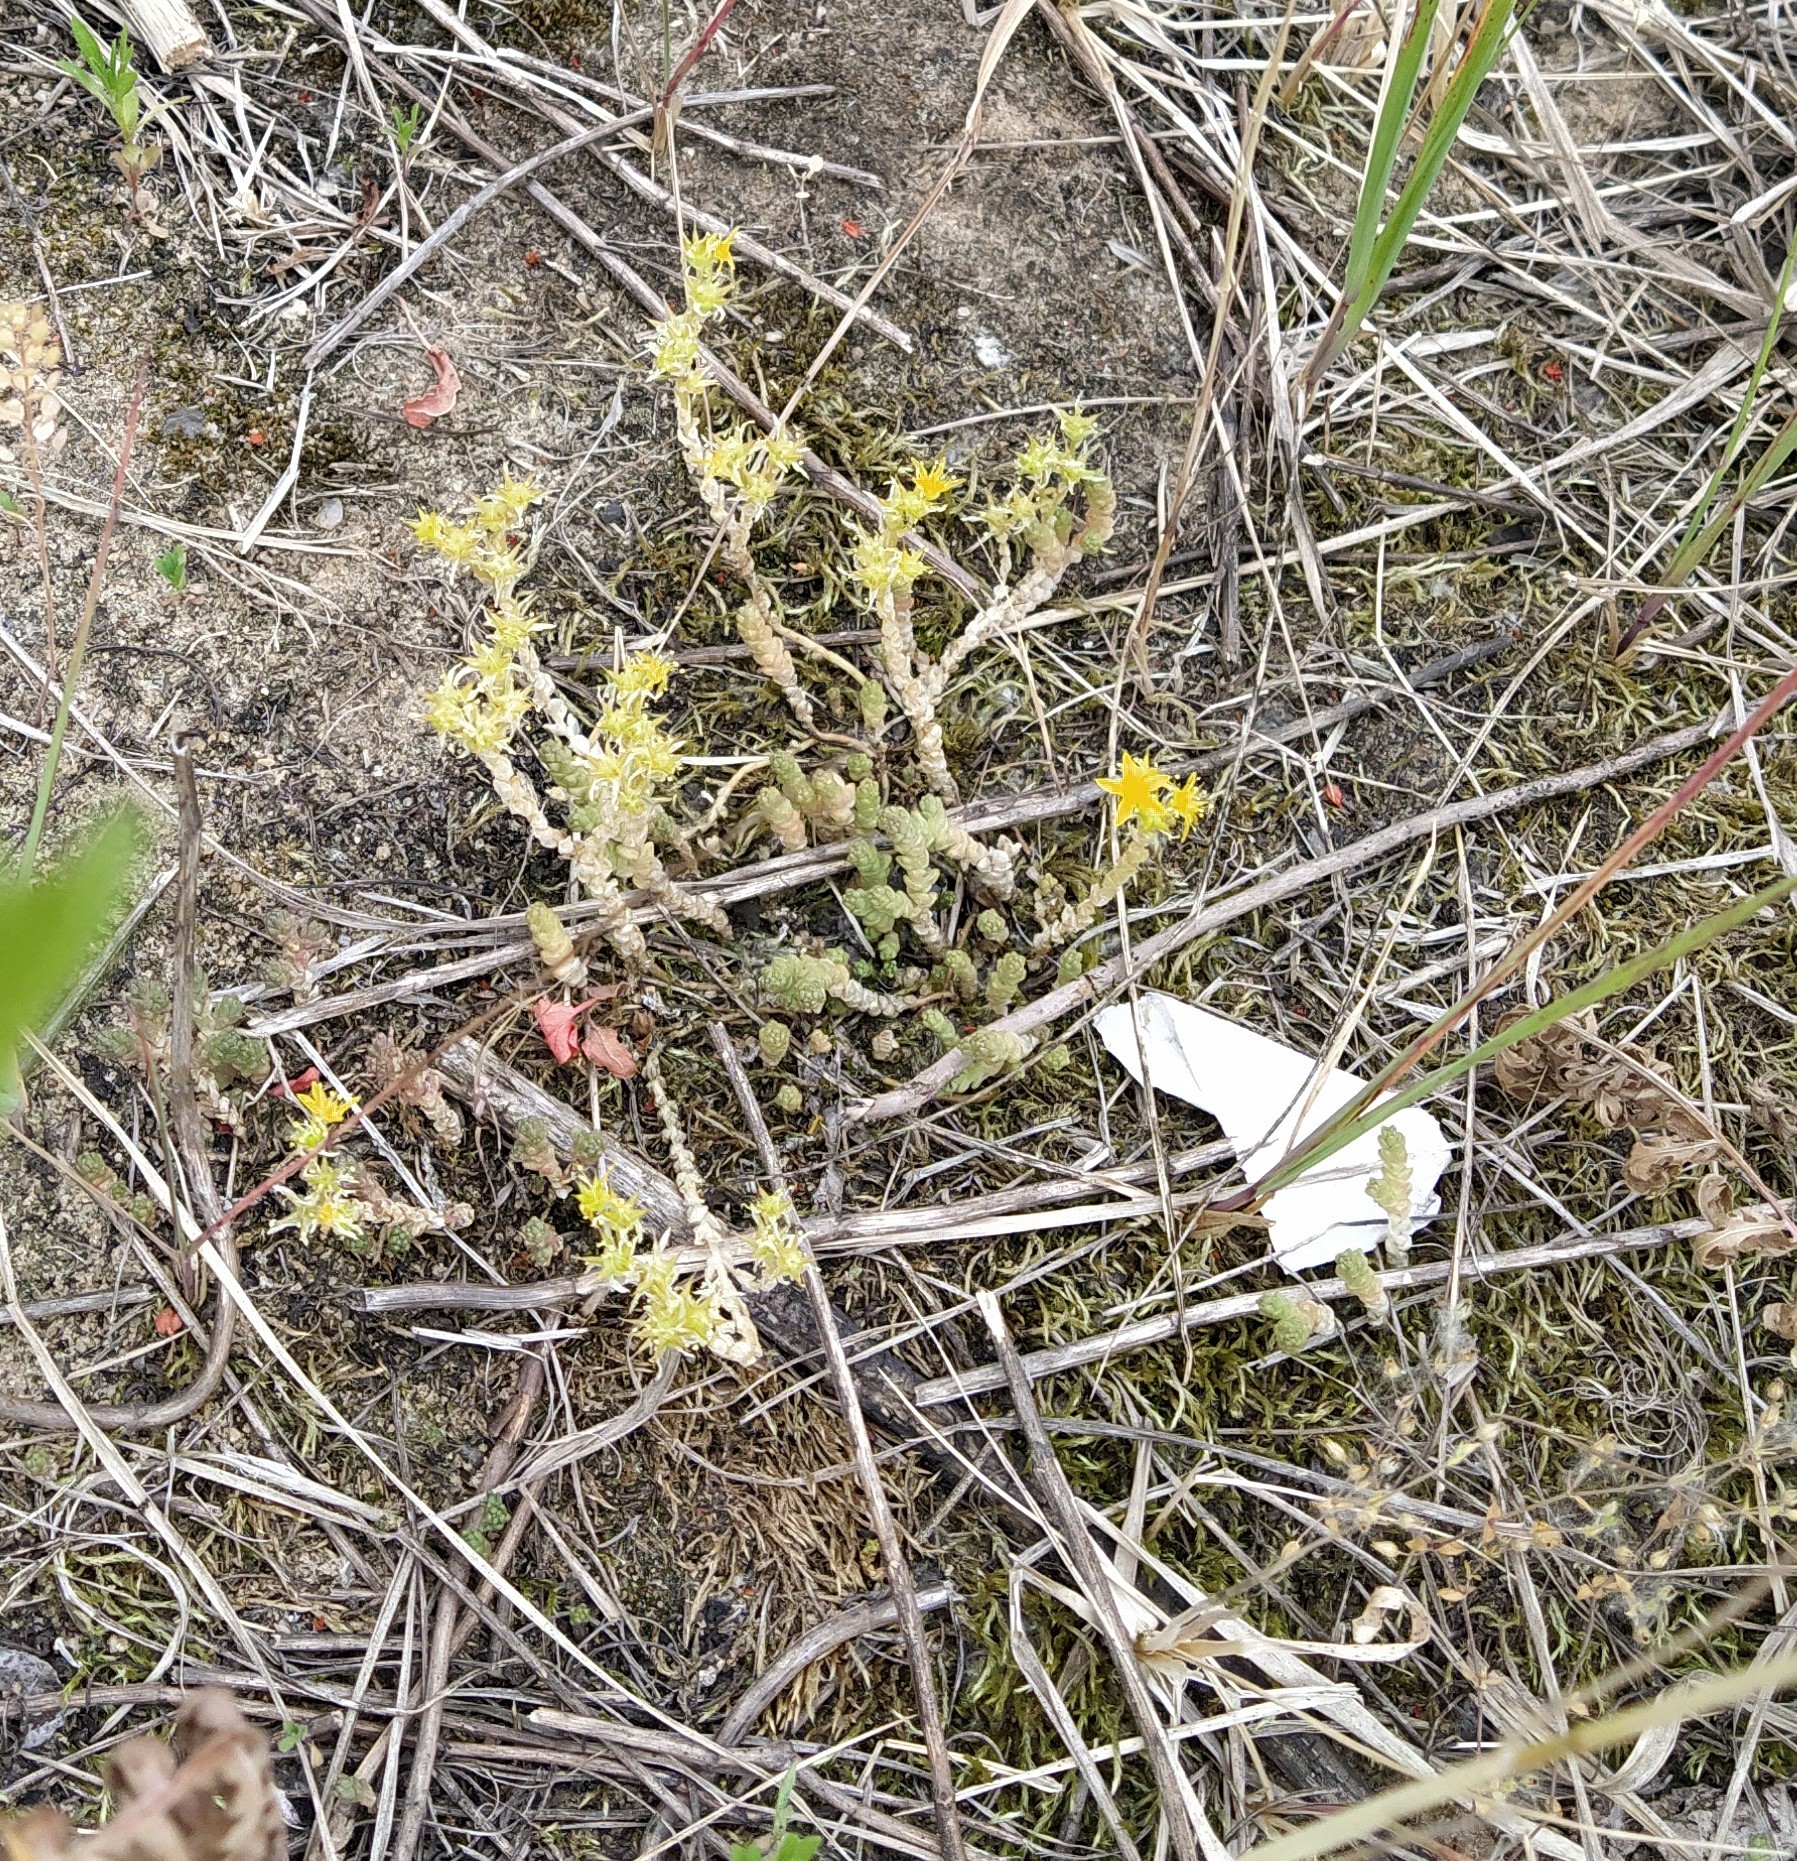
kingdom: Plantae
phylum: Tracheophyta
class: Magnoliopsida
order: Saxifragales
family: Crassulaceae
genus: Sedum
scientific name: Sedum acre
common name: Biting stonecrop
